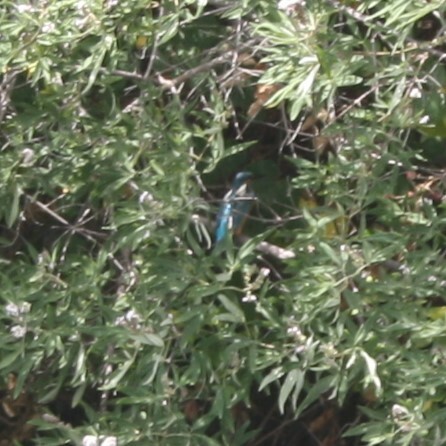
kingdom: Animalia
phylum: Chordata
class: Aves
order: Coraciiformes
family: Alcedinidae
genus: Alcedo
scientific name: Alcedo atthis
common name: Common kingfisher
